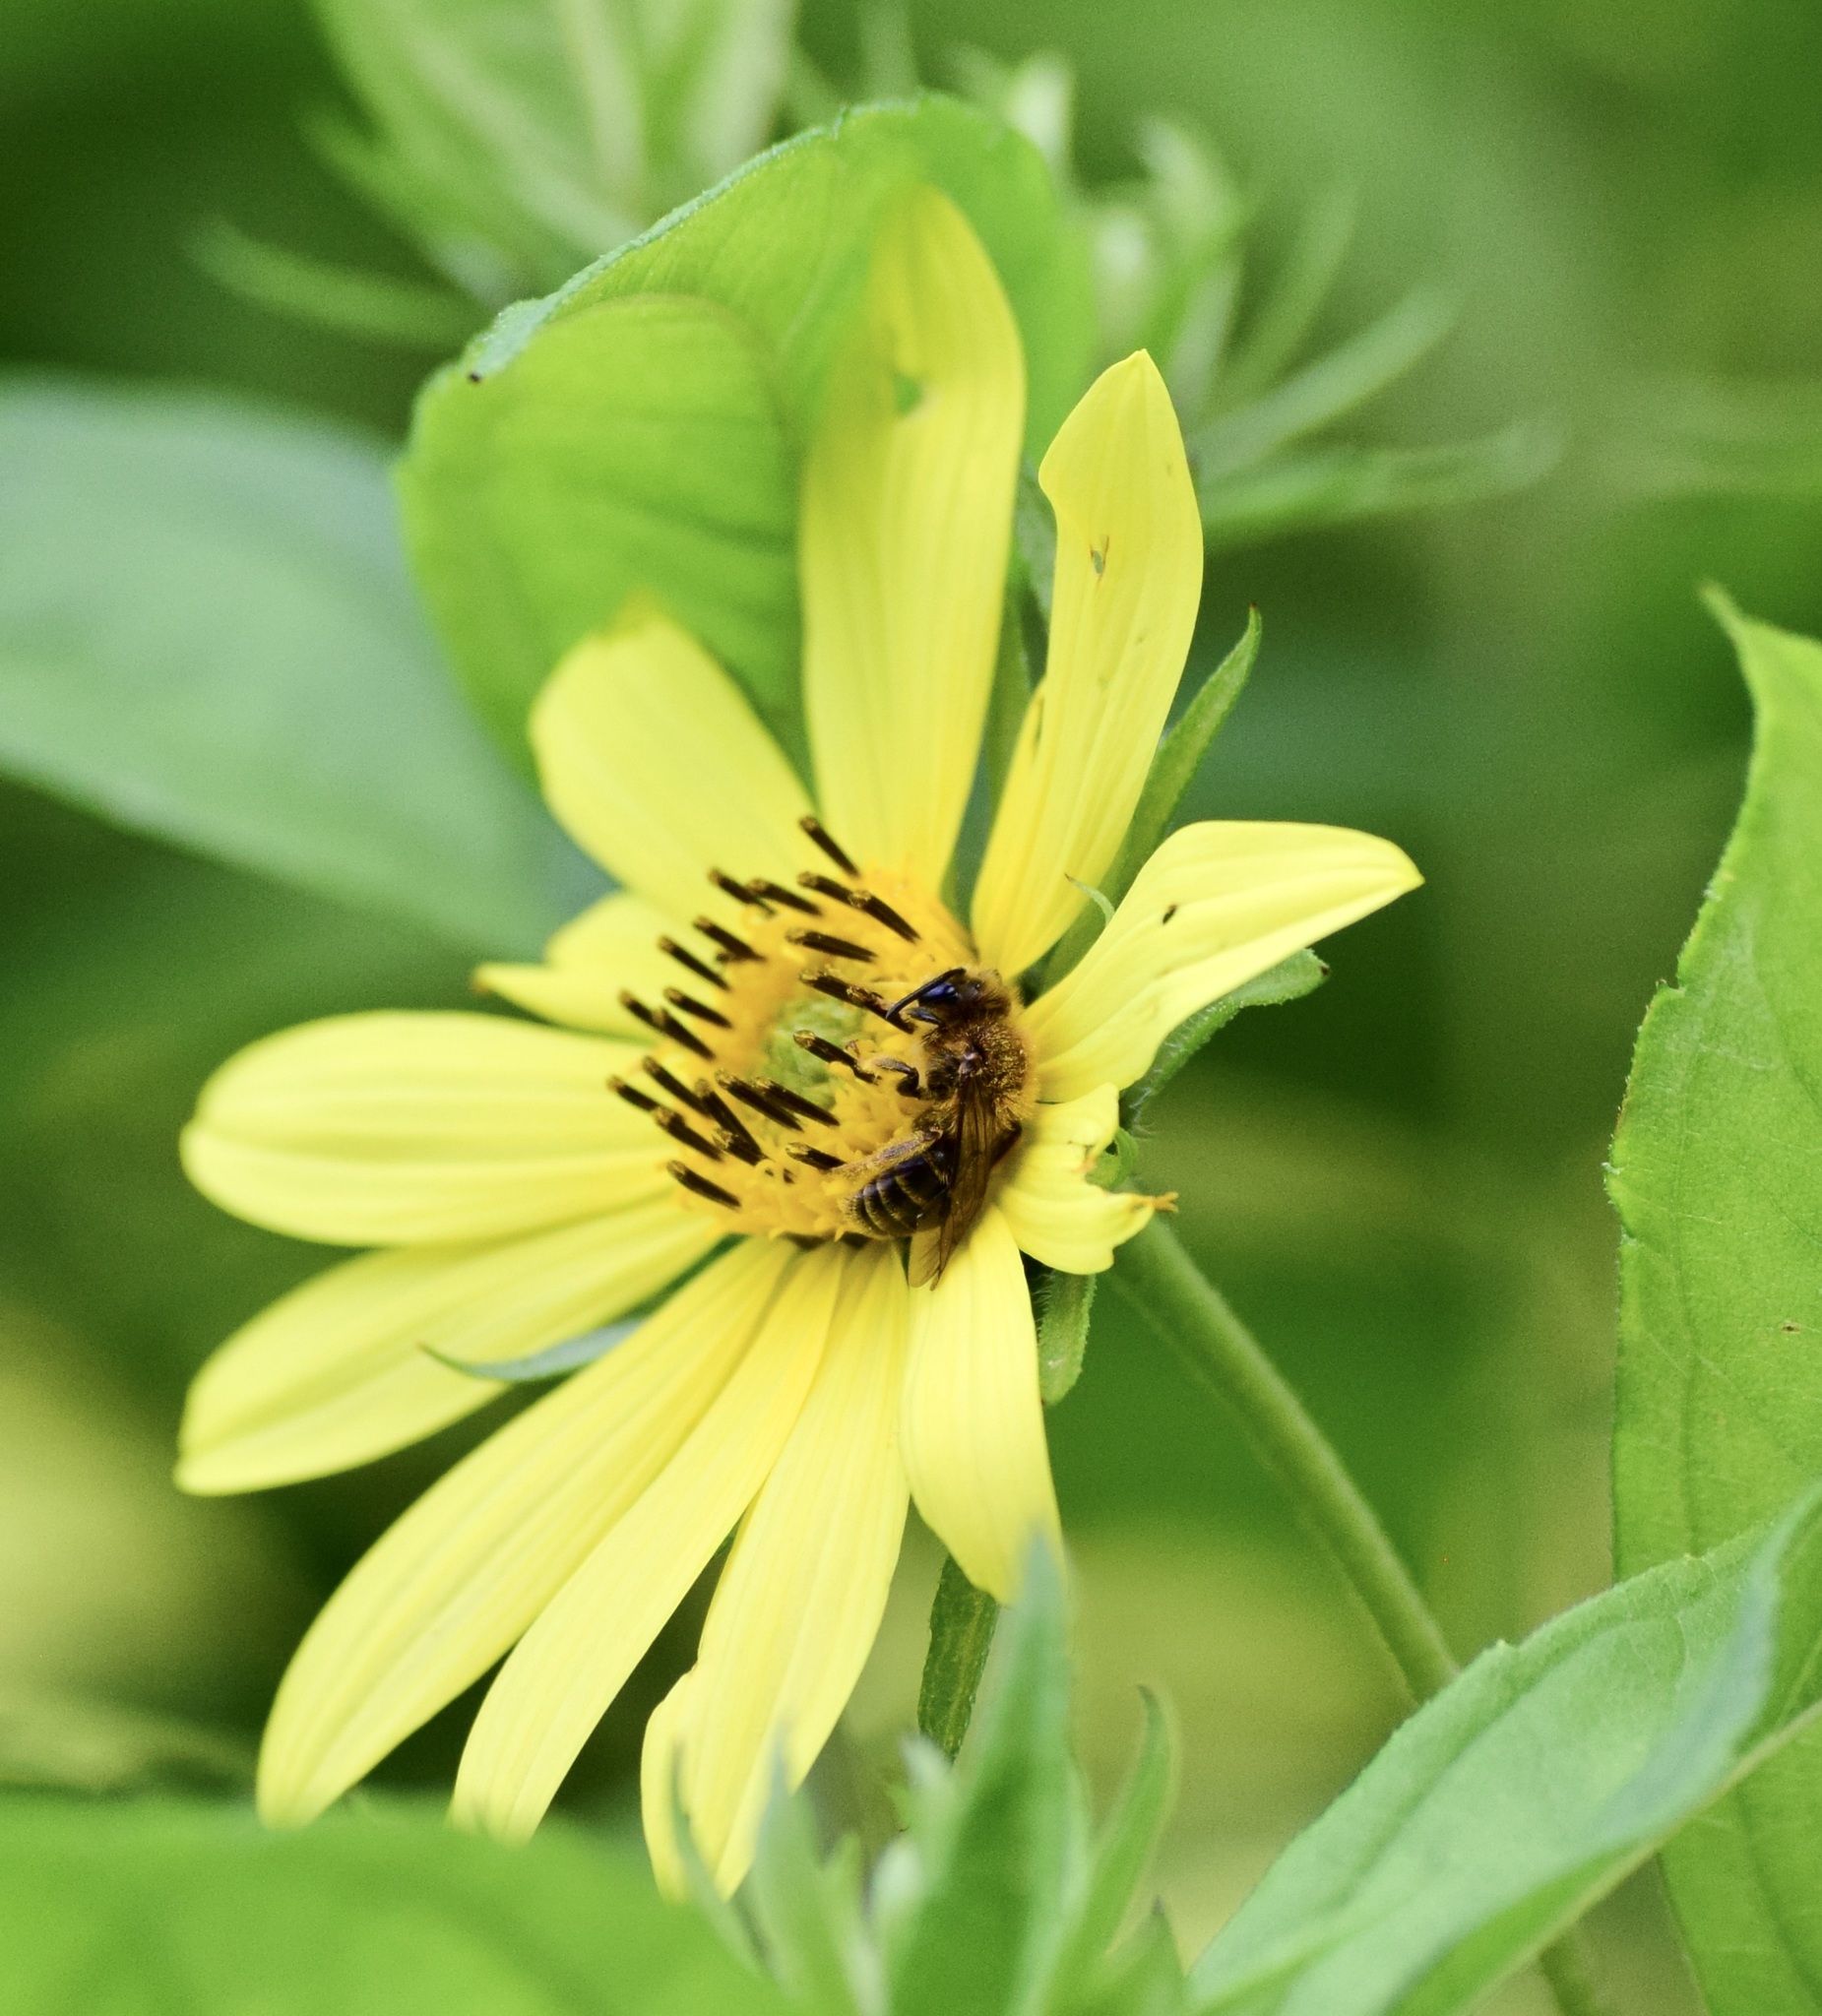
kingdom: Animalia
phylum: Arthropoda
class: Insecta
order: Hymenoptera
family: Andrenidae
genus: Andrena
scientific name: Andrena helianthi
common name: Sunflower mining bee
